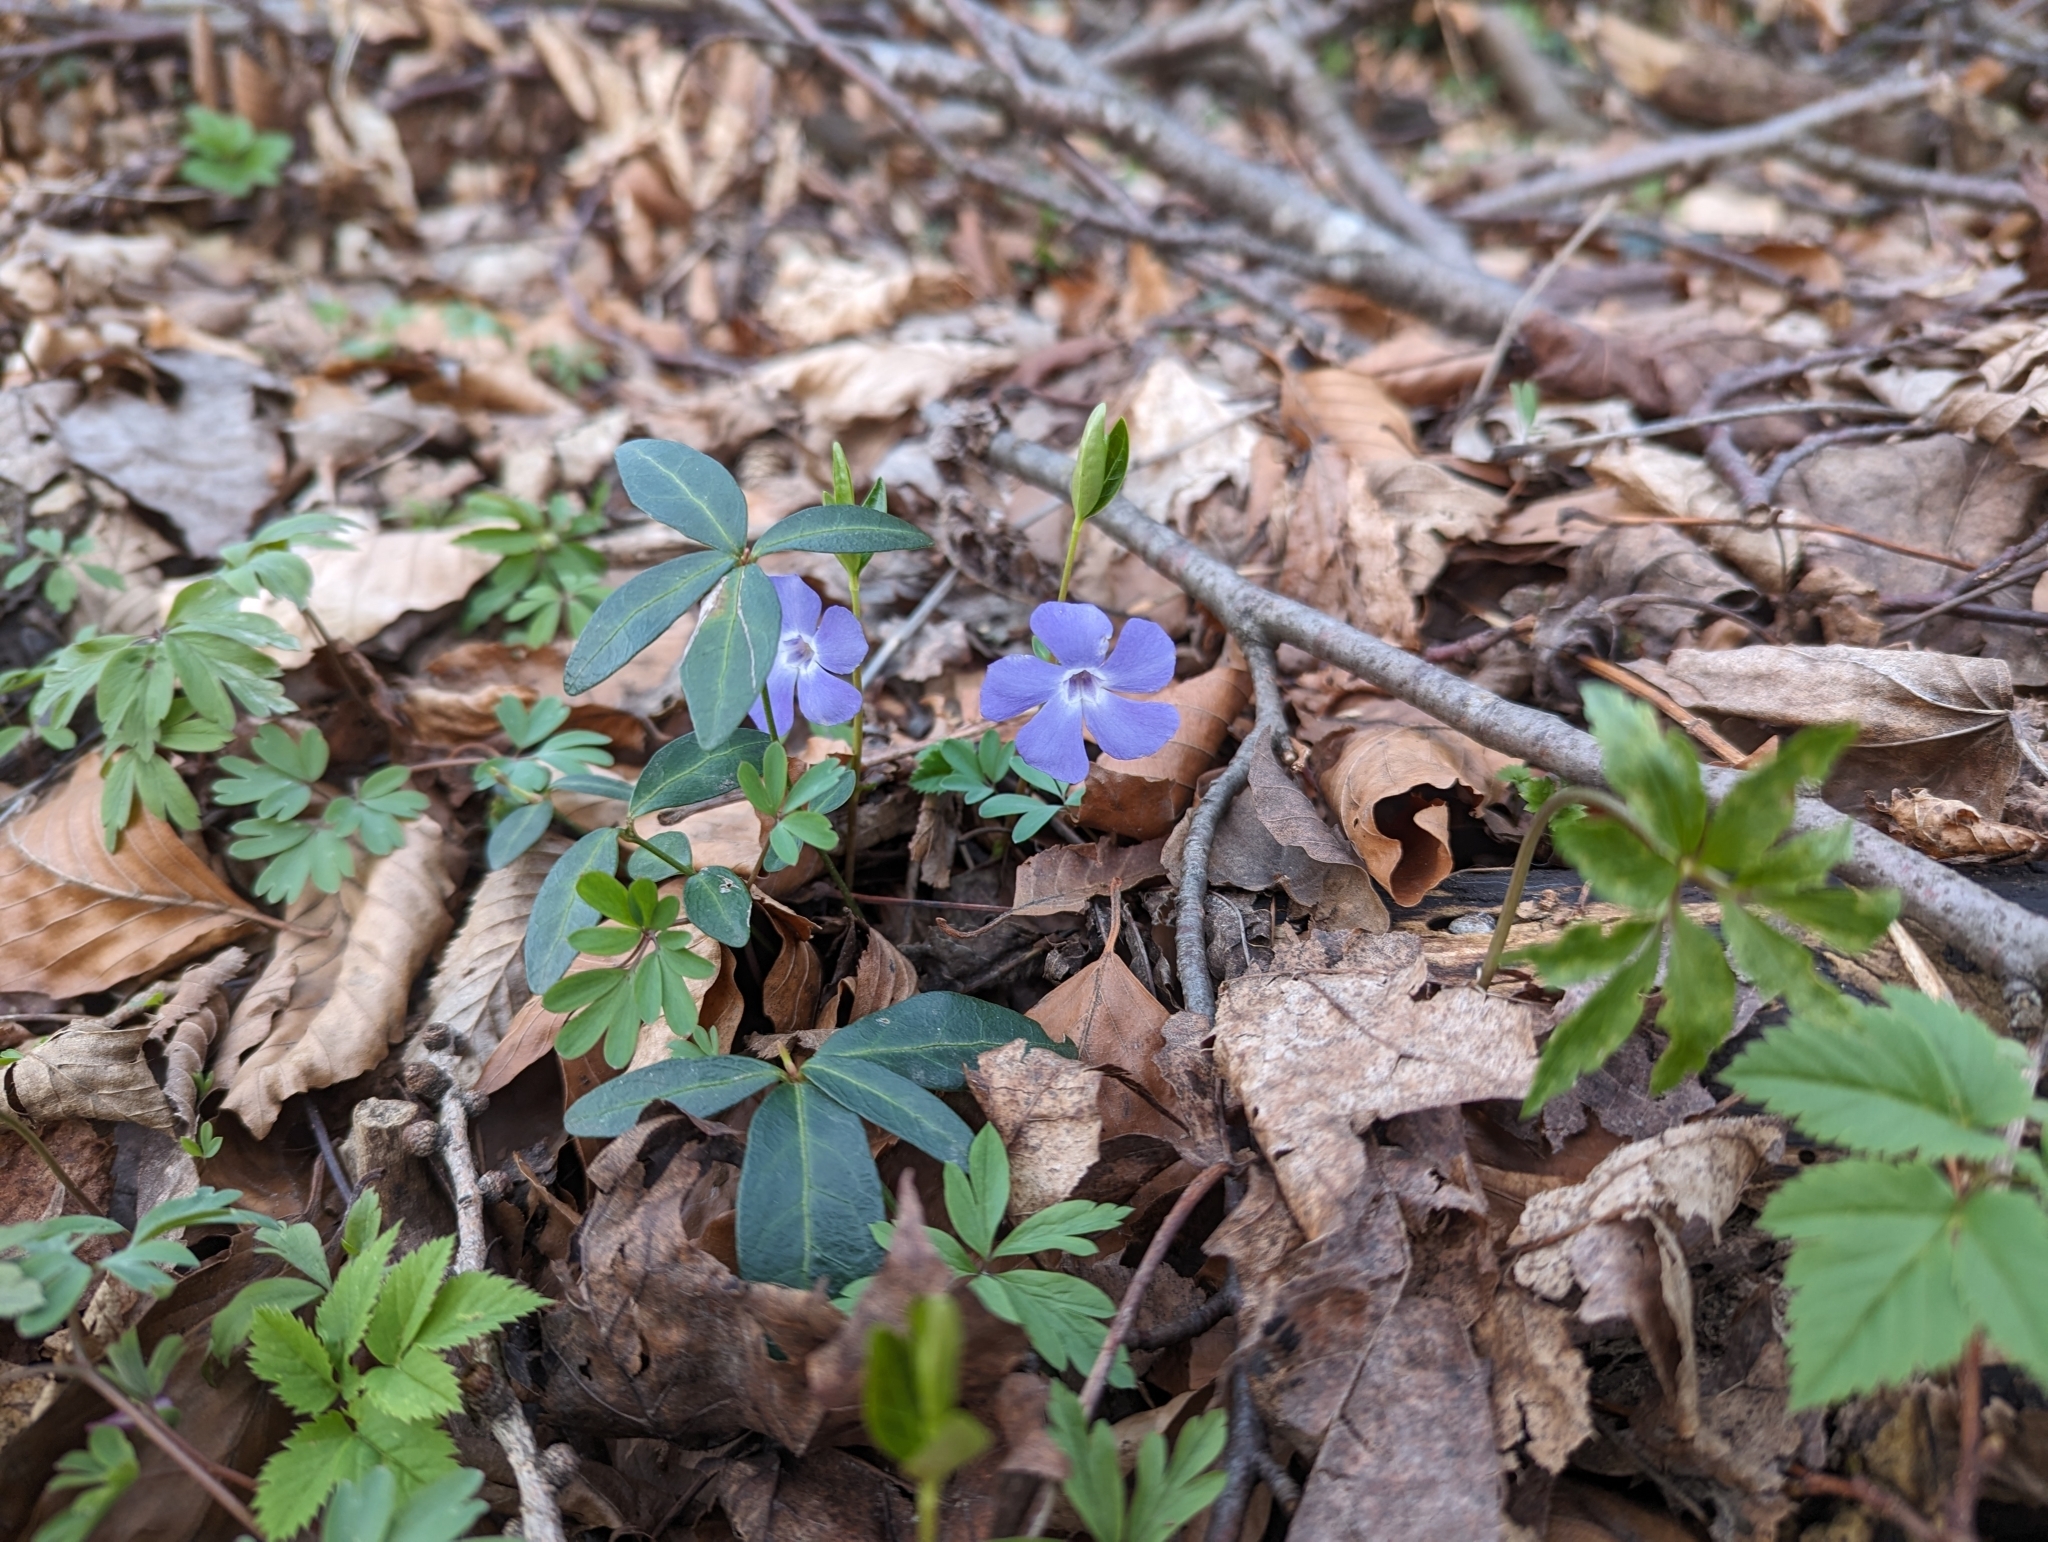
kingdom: Plantae
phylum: Tracheophyta
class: Magnoliopsida
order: Gentianales
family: Apocynaceae
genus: Vinca
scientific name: Vinca minor
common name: Lesser periwinkle
